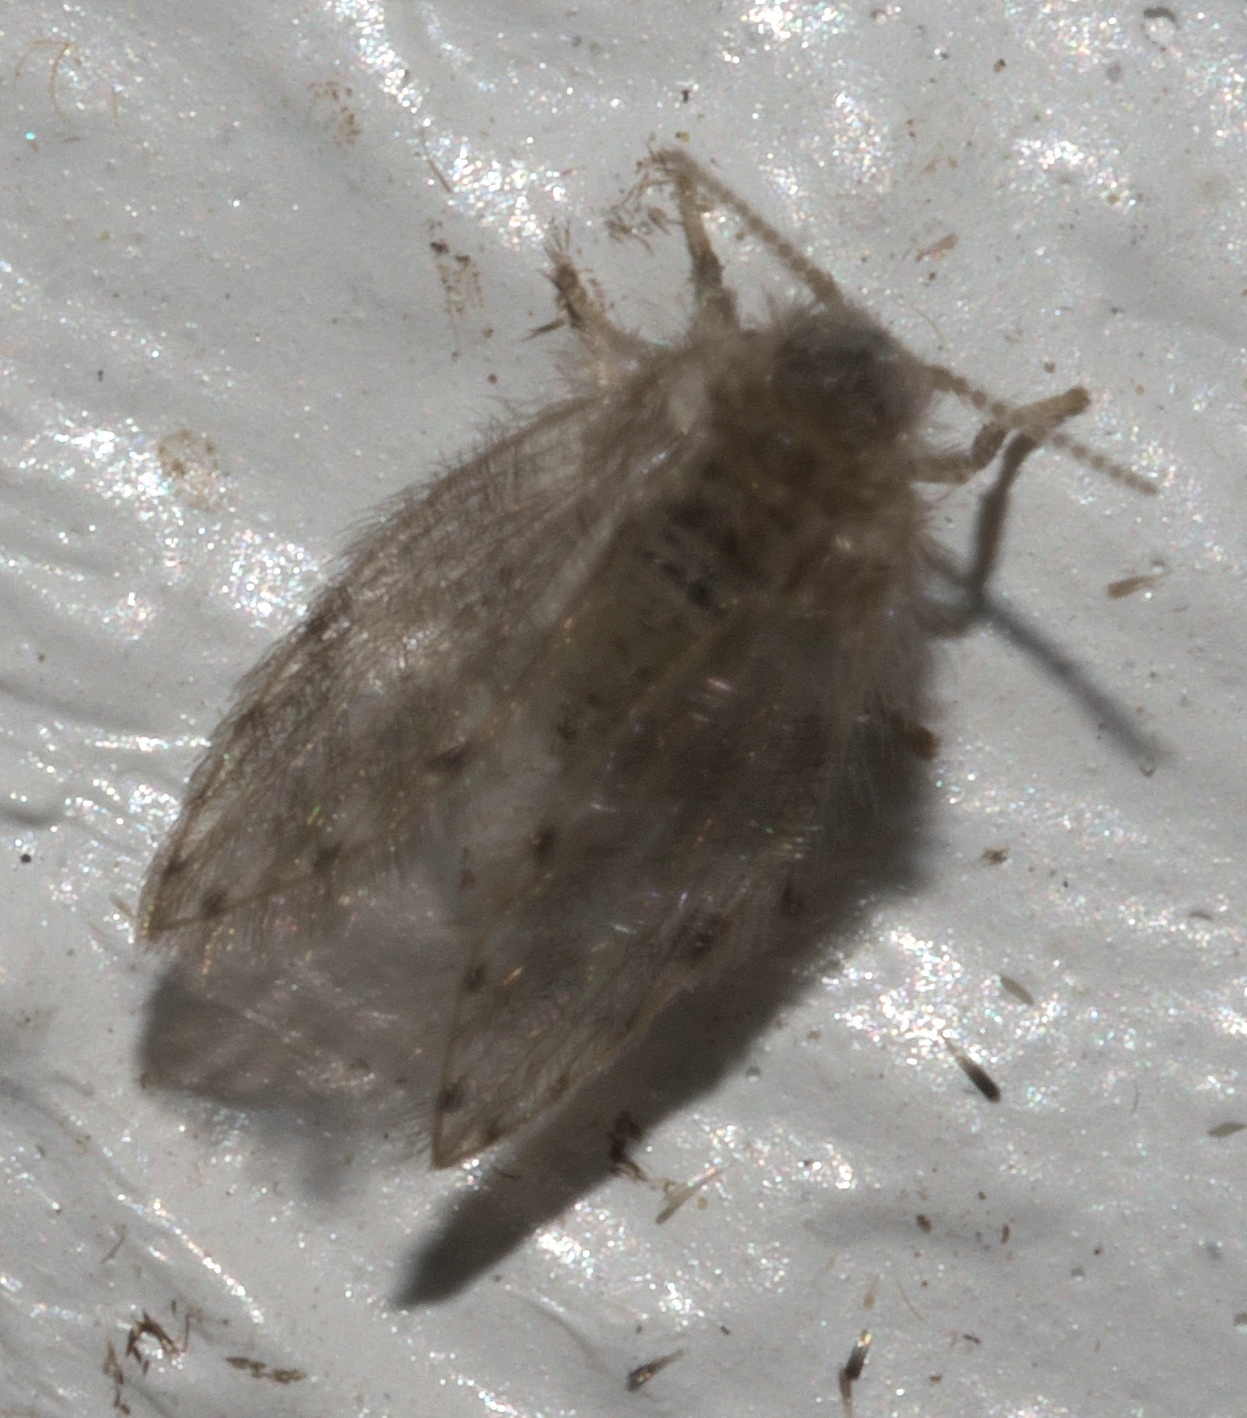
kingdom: Animalia
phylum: Arthropoda
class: Insecta
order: Diptera
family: Psychodidae
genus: Psychoda
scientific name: Psychoda alternata
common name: Moth fly
